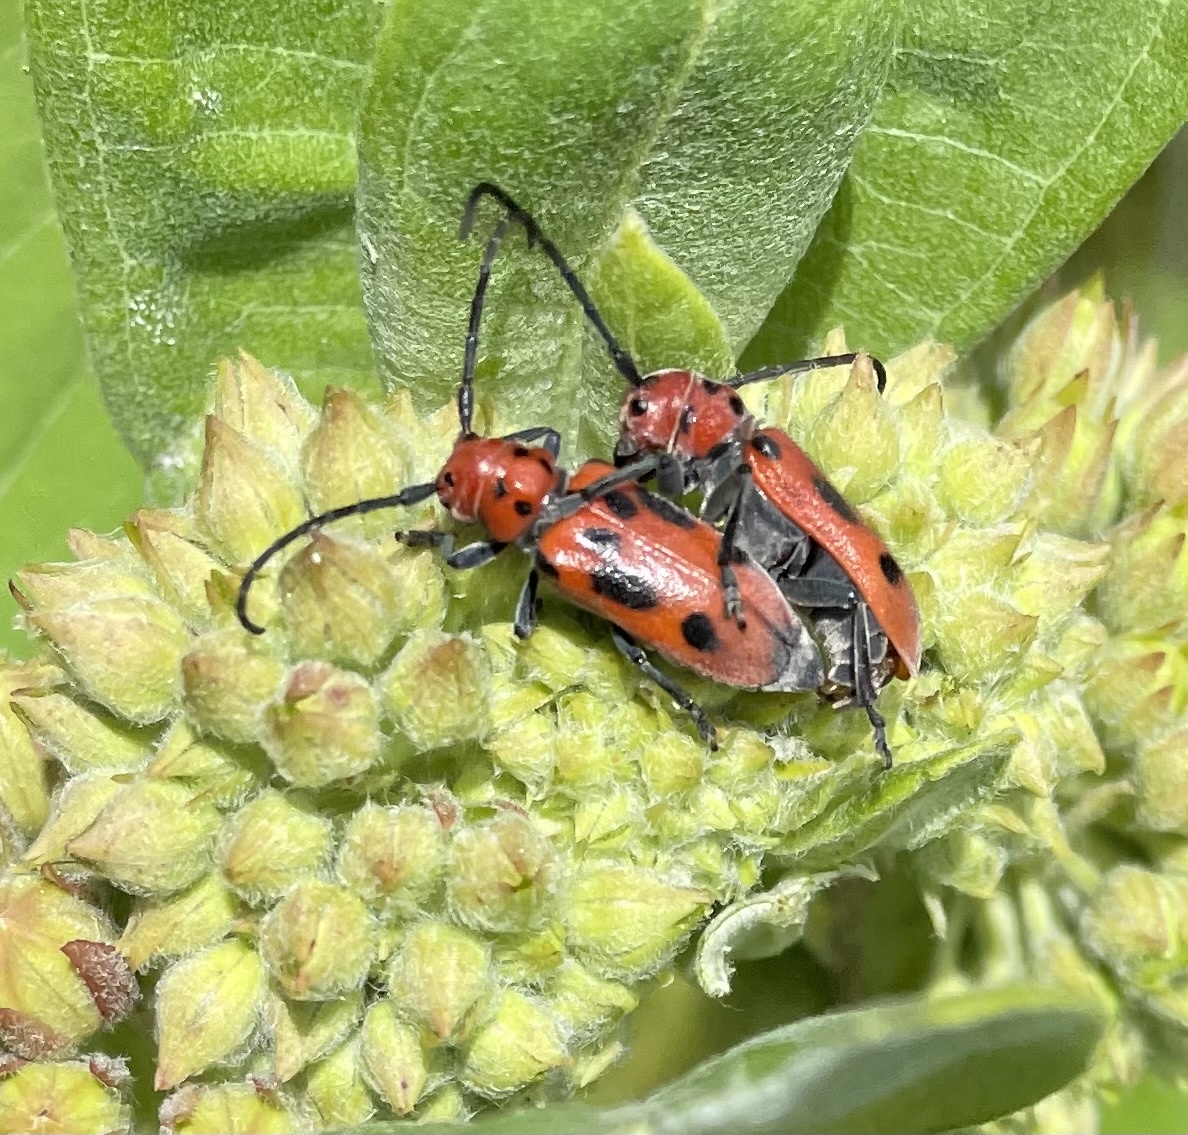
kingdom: Animalia
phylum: Arthropoda
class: Insecta
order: Coleoptera
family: Cerambycidae
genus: Tetraopes
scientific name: Tetraopes tetrophthalmus
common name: Red milkweed beetle
